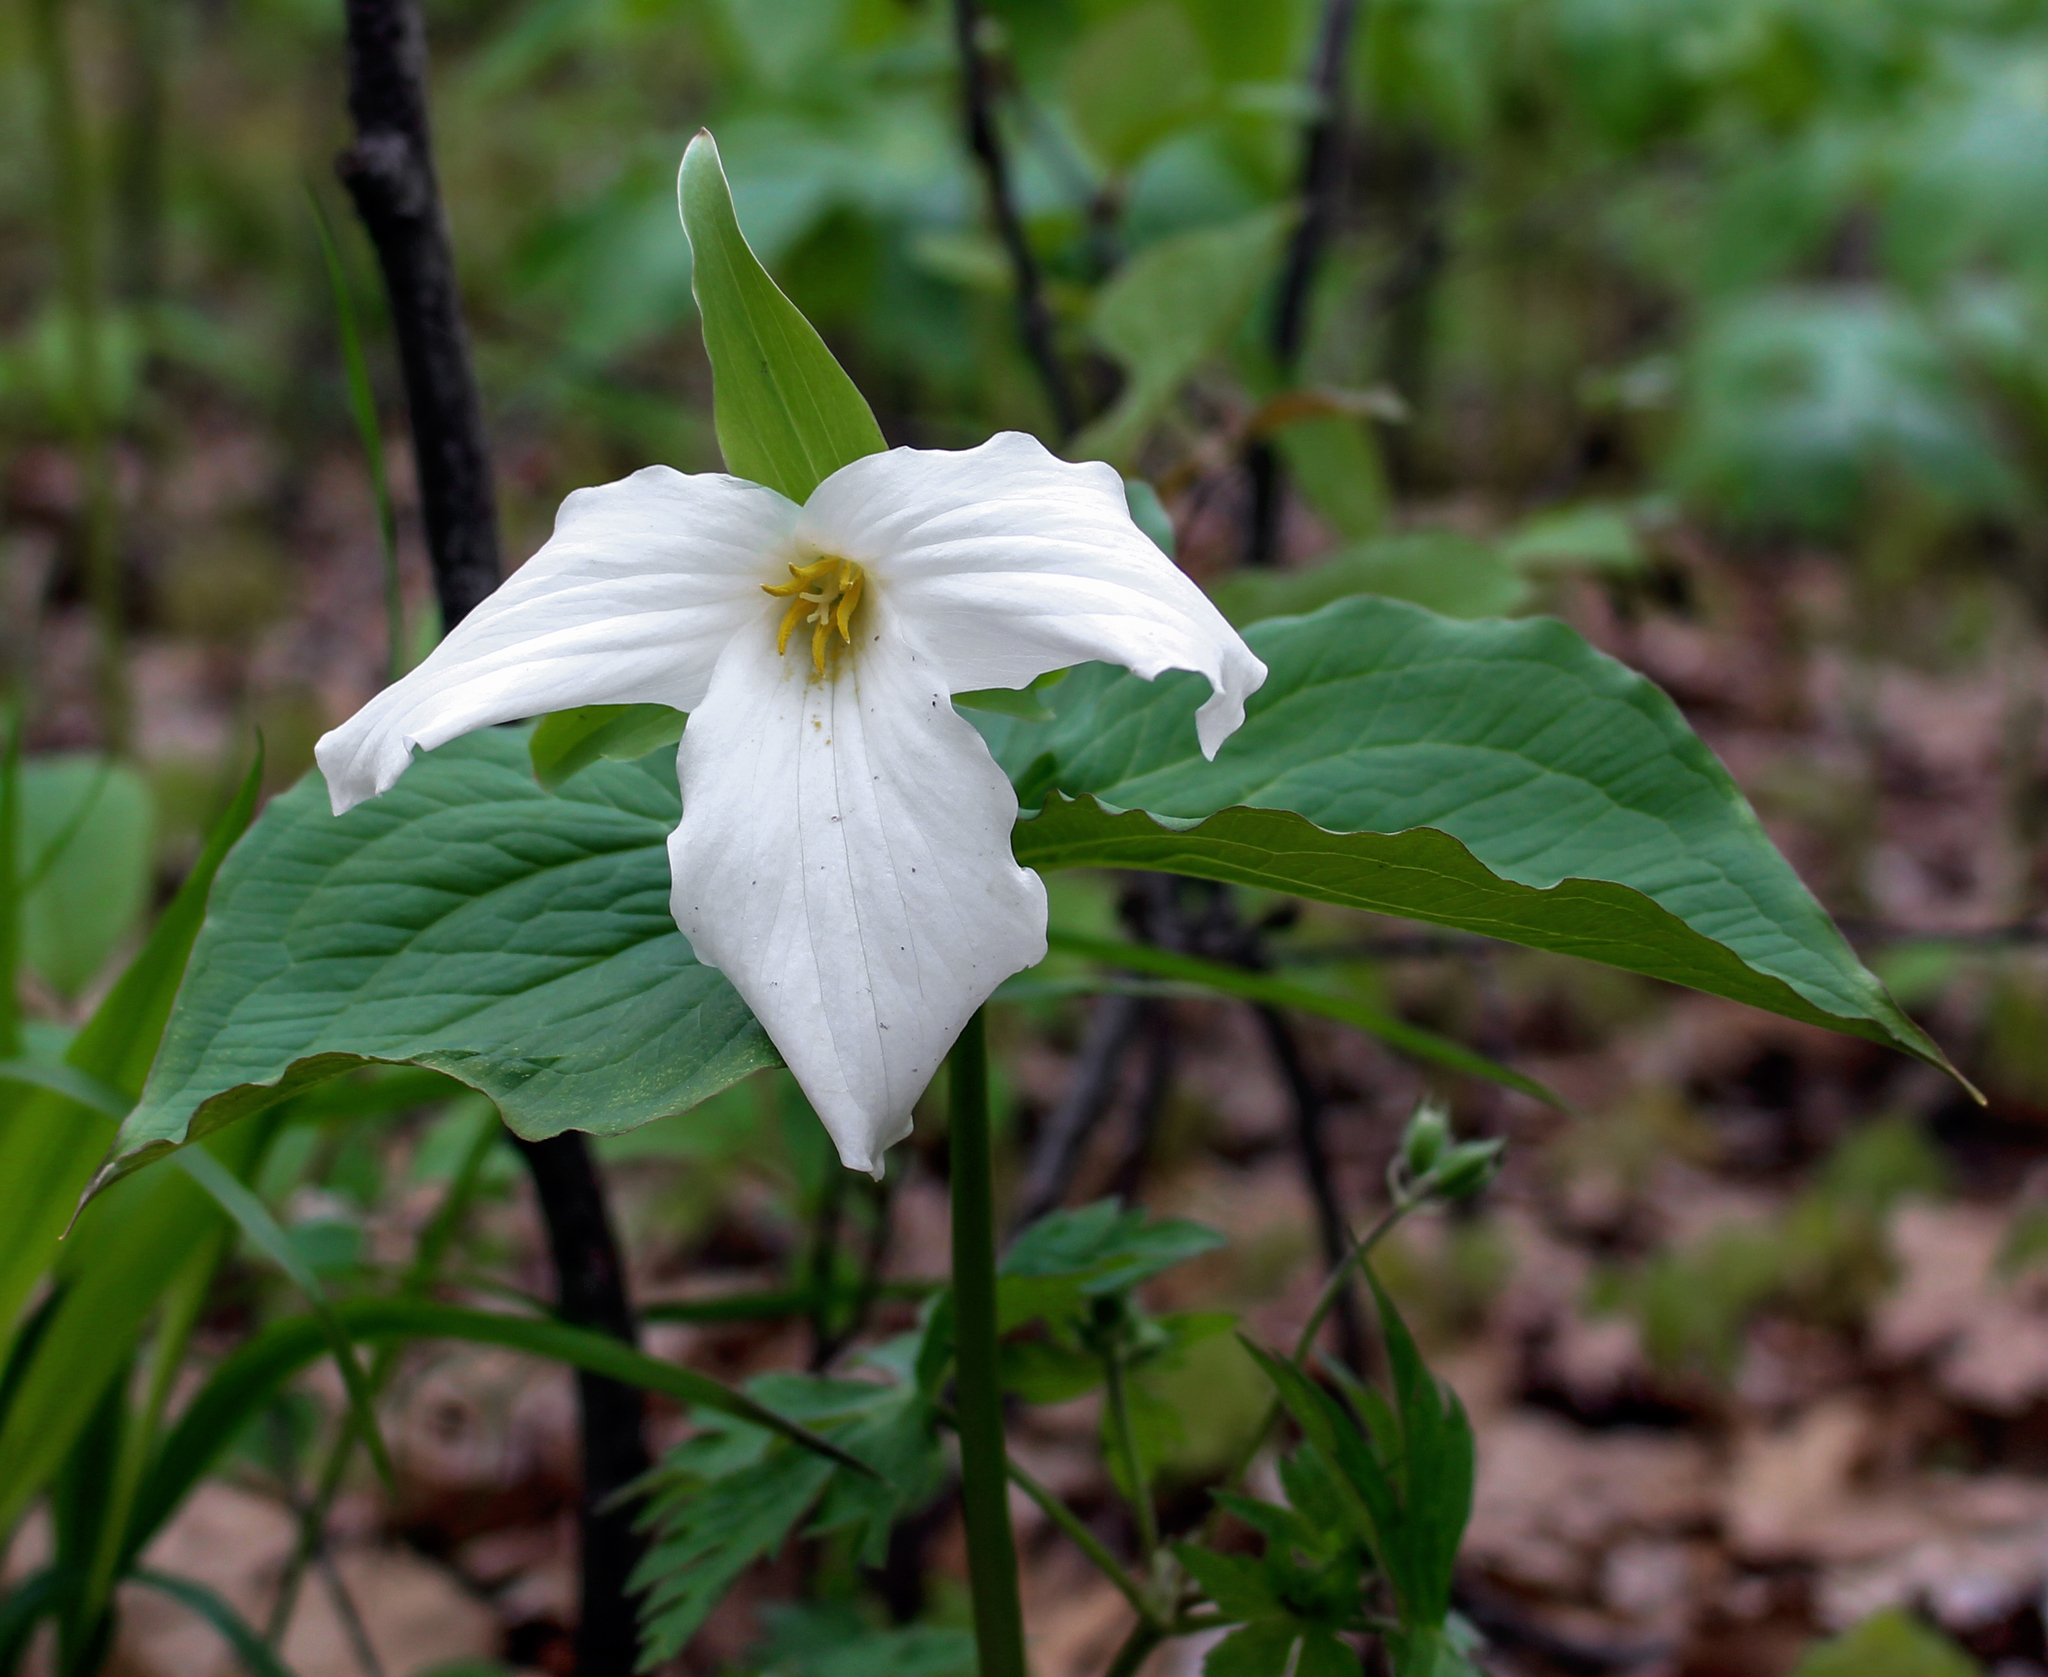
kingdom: Plantae
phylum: Tracheophyta
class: Liliopsida
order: Liliales
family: Melanthiaceae
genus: Trillium
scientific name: Trillium grandiflorum
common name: Great white trillium
